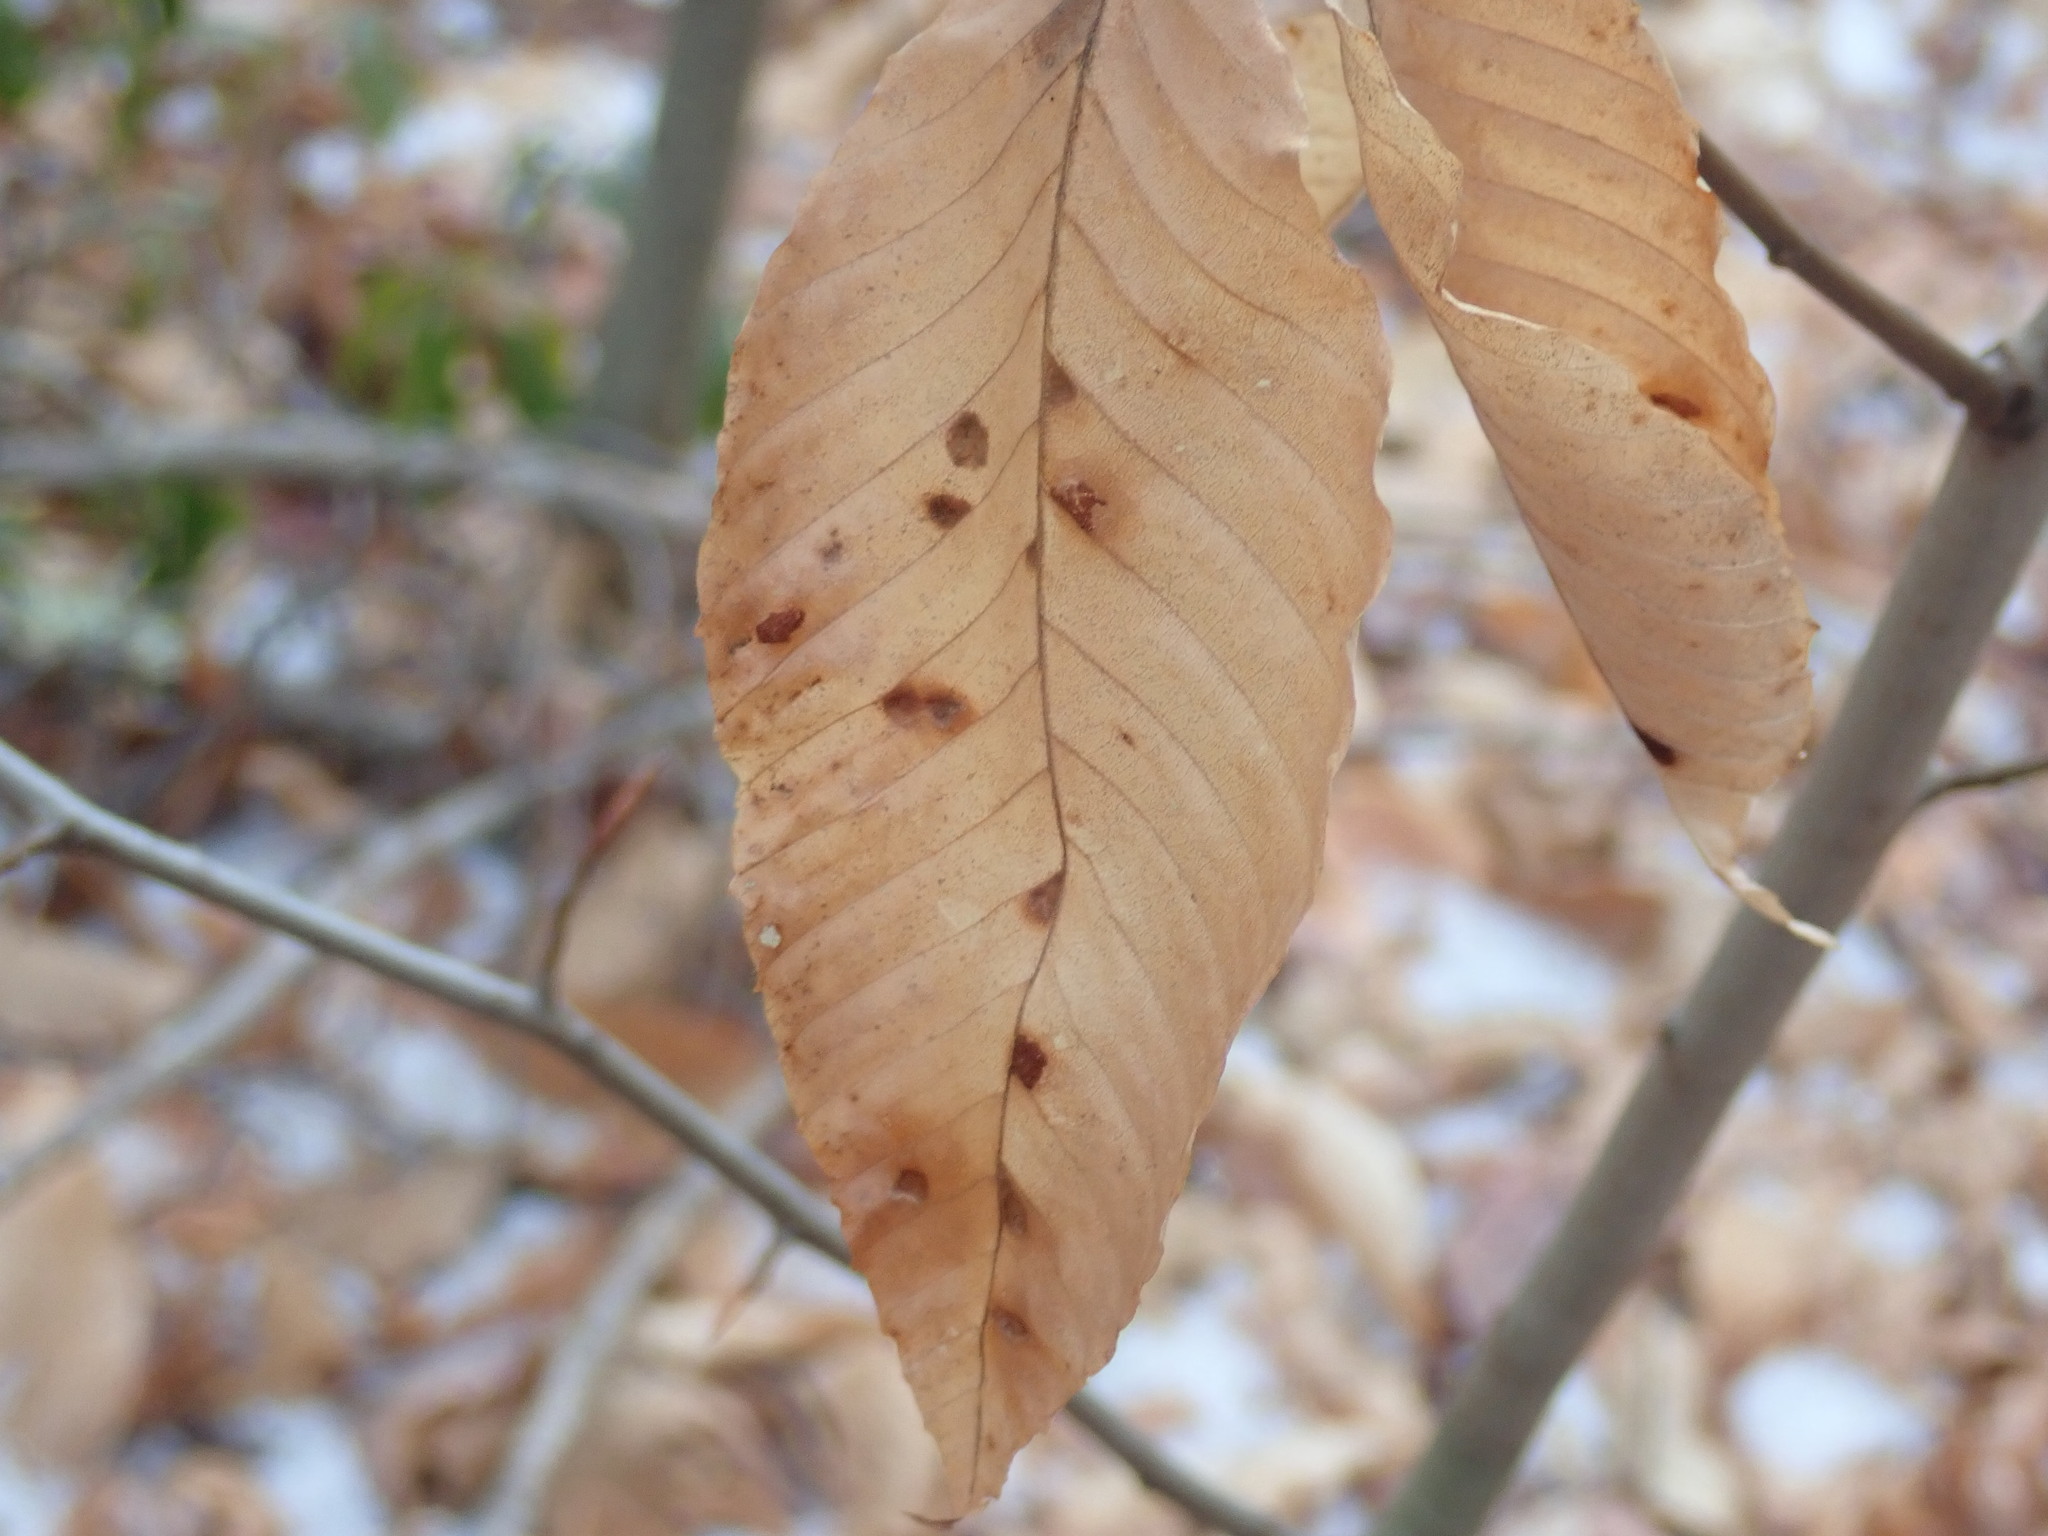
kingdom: Animalia
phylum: Arthropoda
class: Arachnida
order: Trombidiformes
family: Eriophyidae
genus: Acalitus
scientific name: Acalitus
